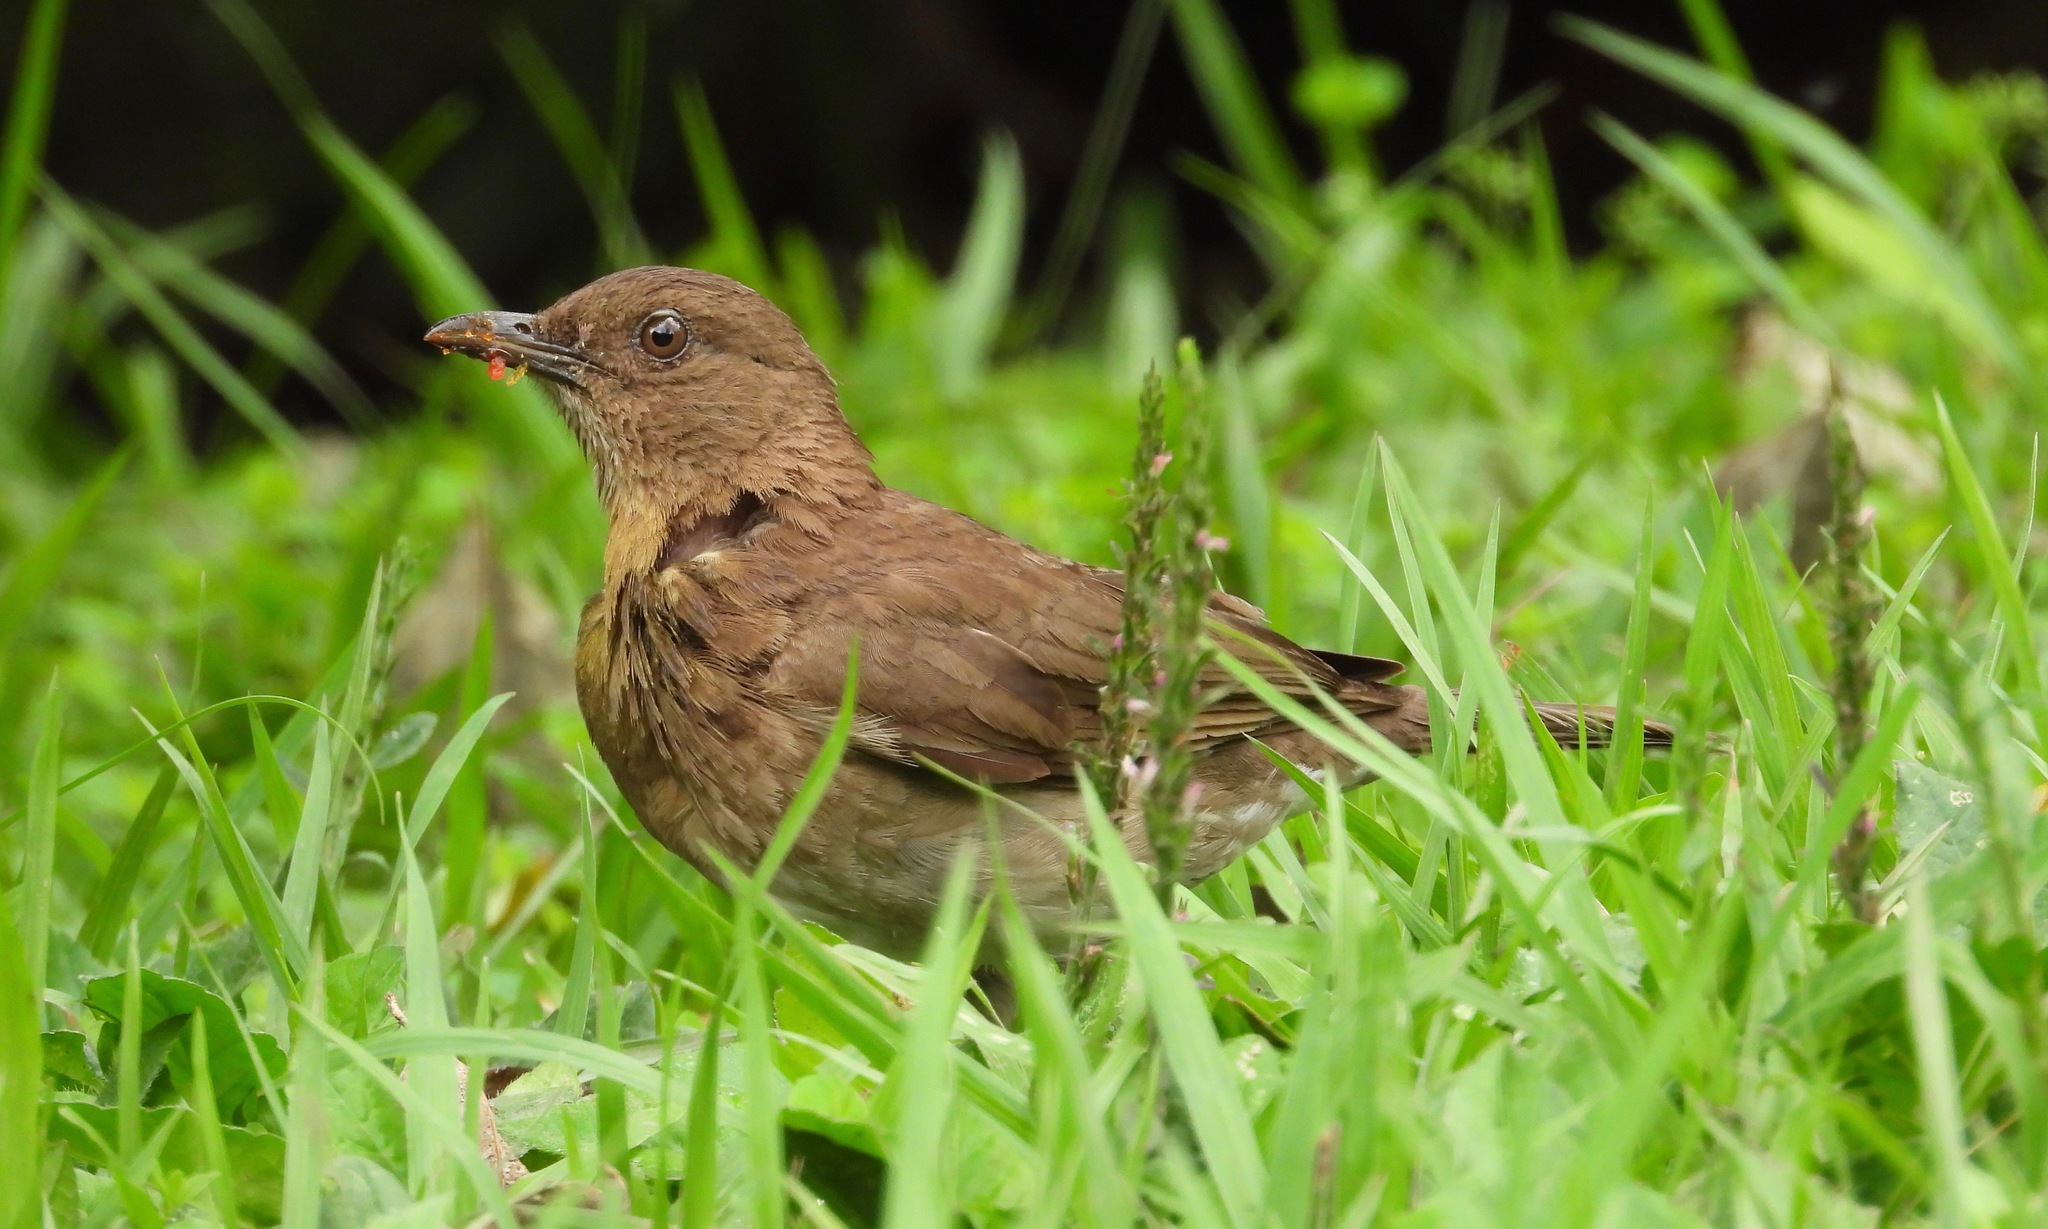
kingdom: Animalia
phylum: Chordata
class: Aves
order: Passeriformes
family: Turdidae
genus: Turdus
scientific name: Turdus ignobilis
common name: Black-billed thrush
